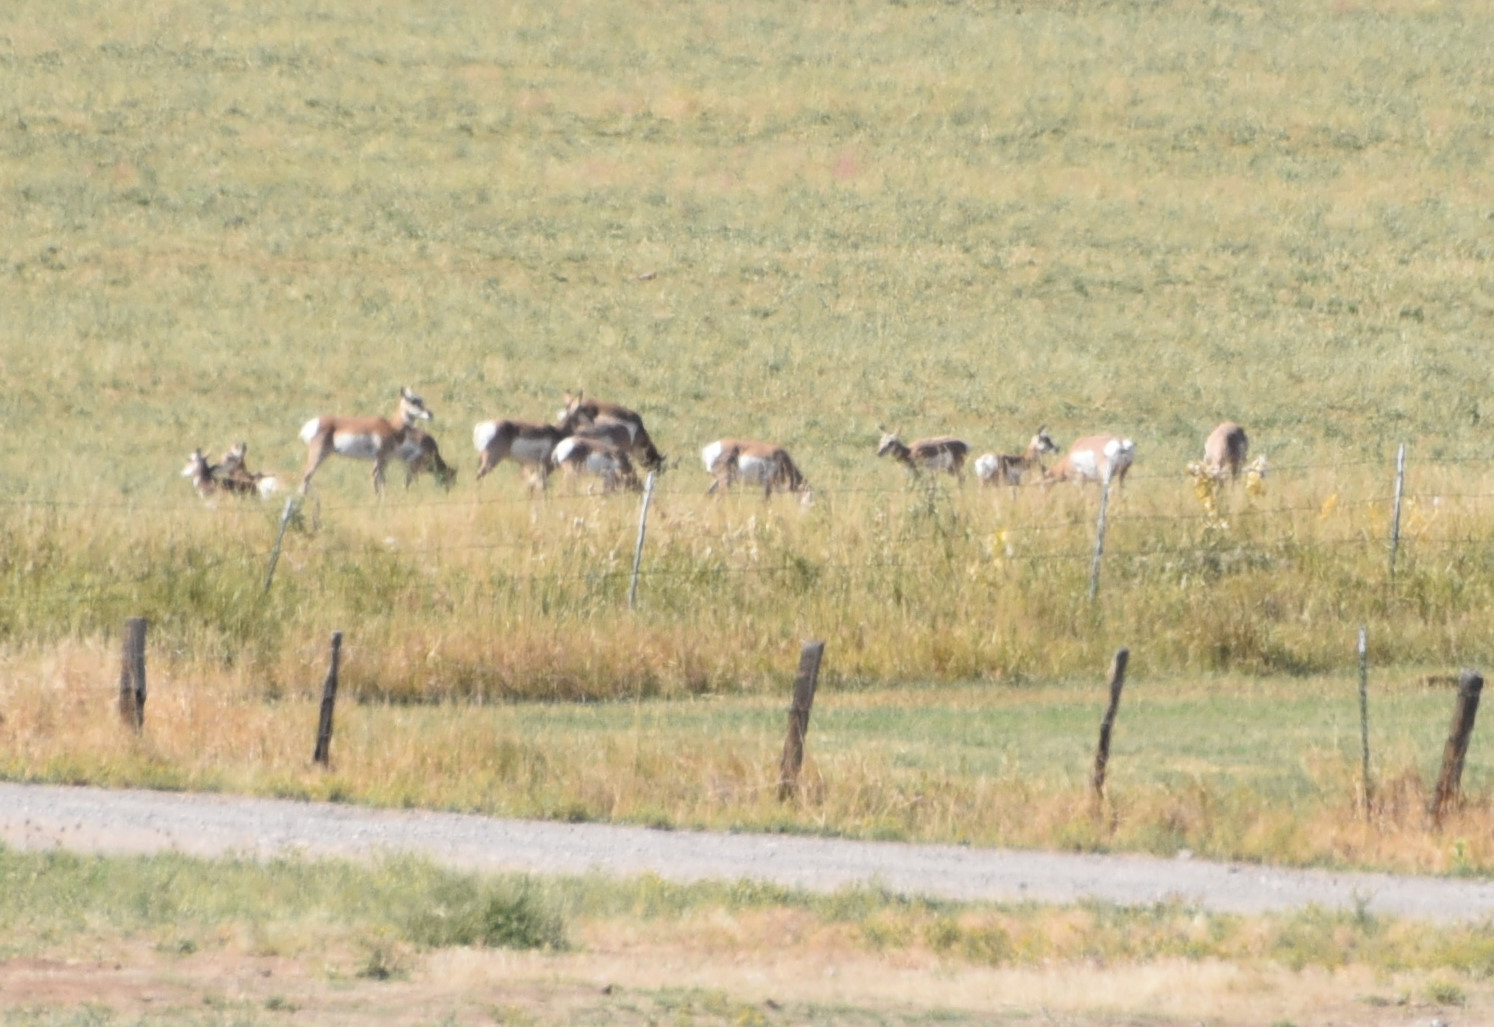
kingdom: Animalia
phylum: Chordata
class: Mammalia
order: Artiodactyla
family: Antilocapridae
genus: Antilocapra
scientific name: Antilocapra americana
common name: Pronghorn
